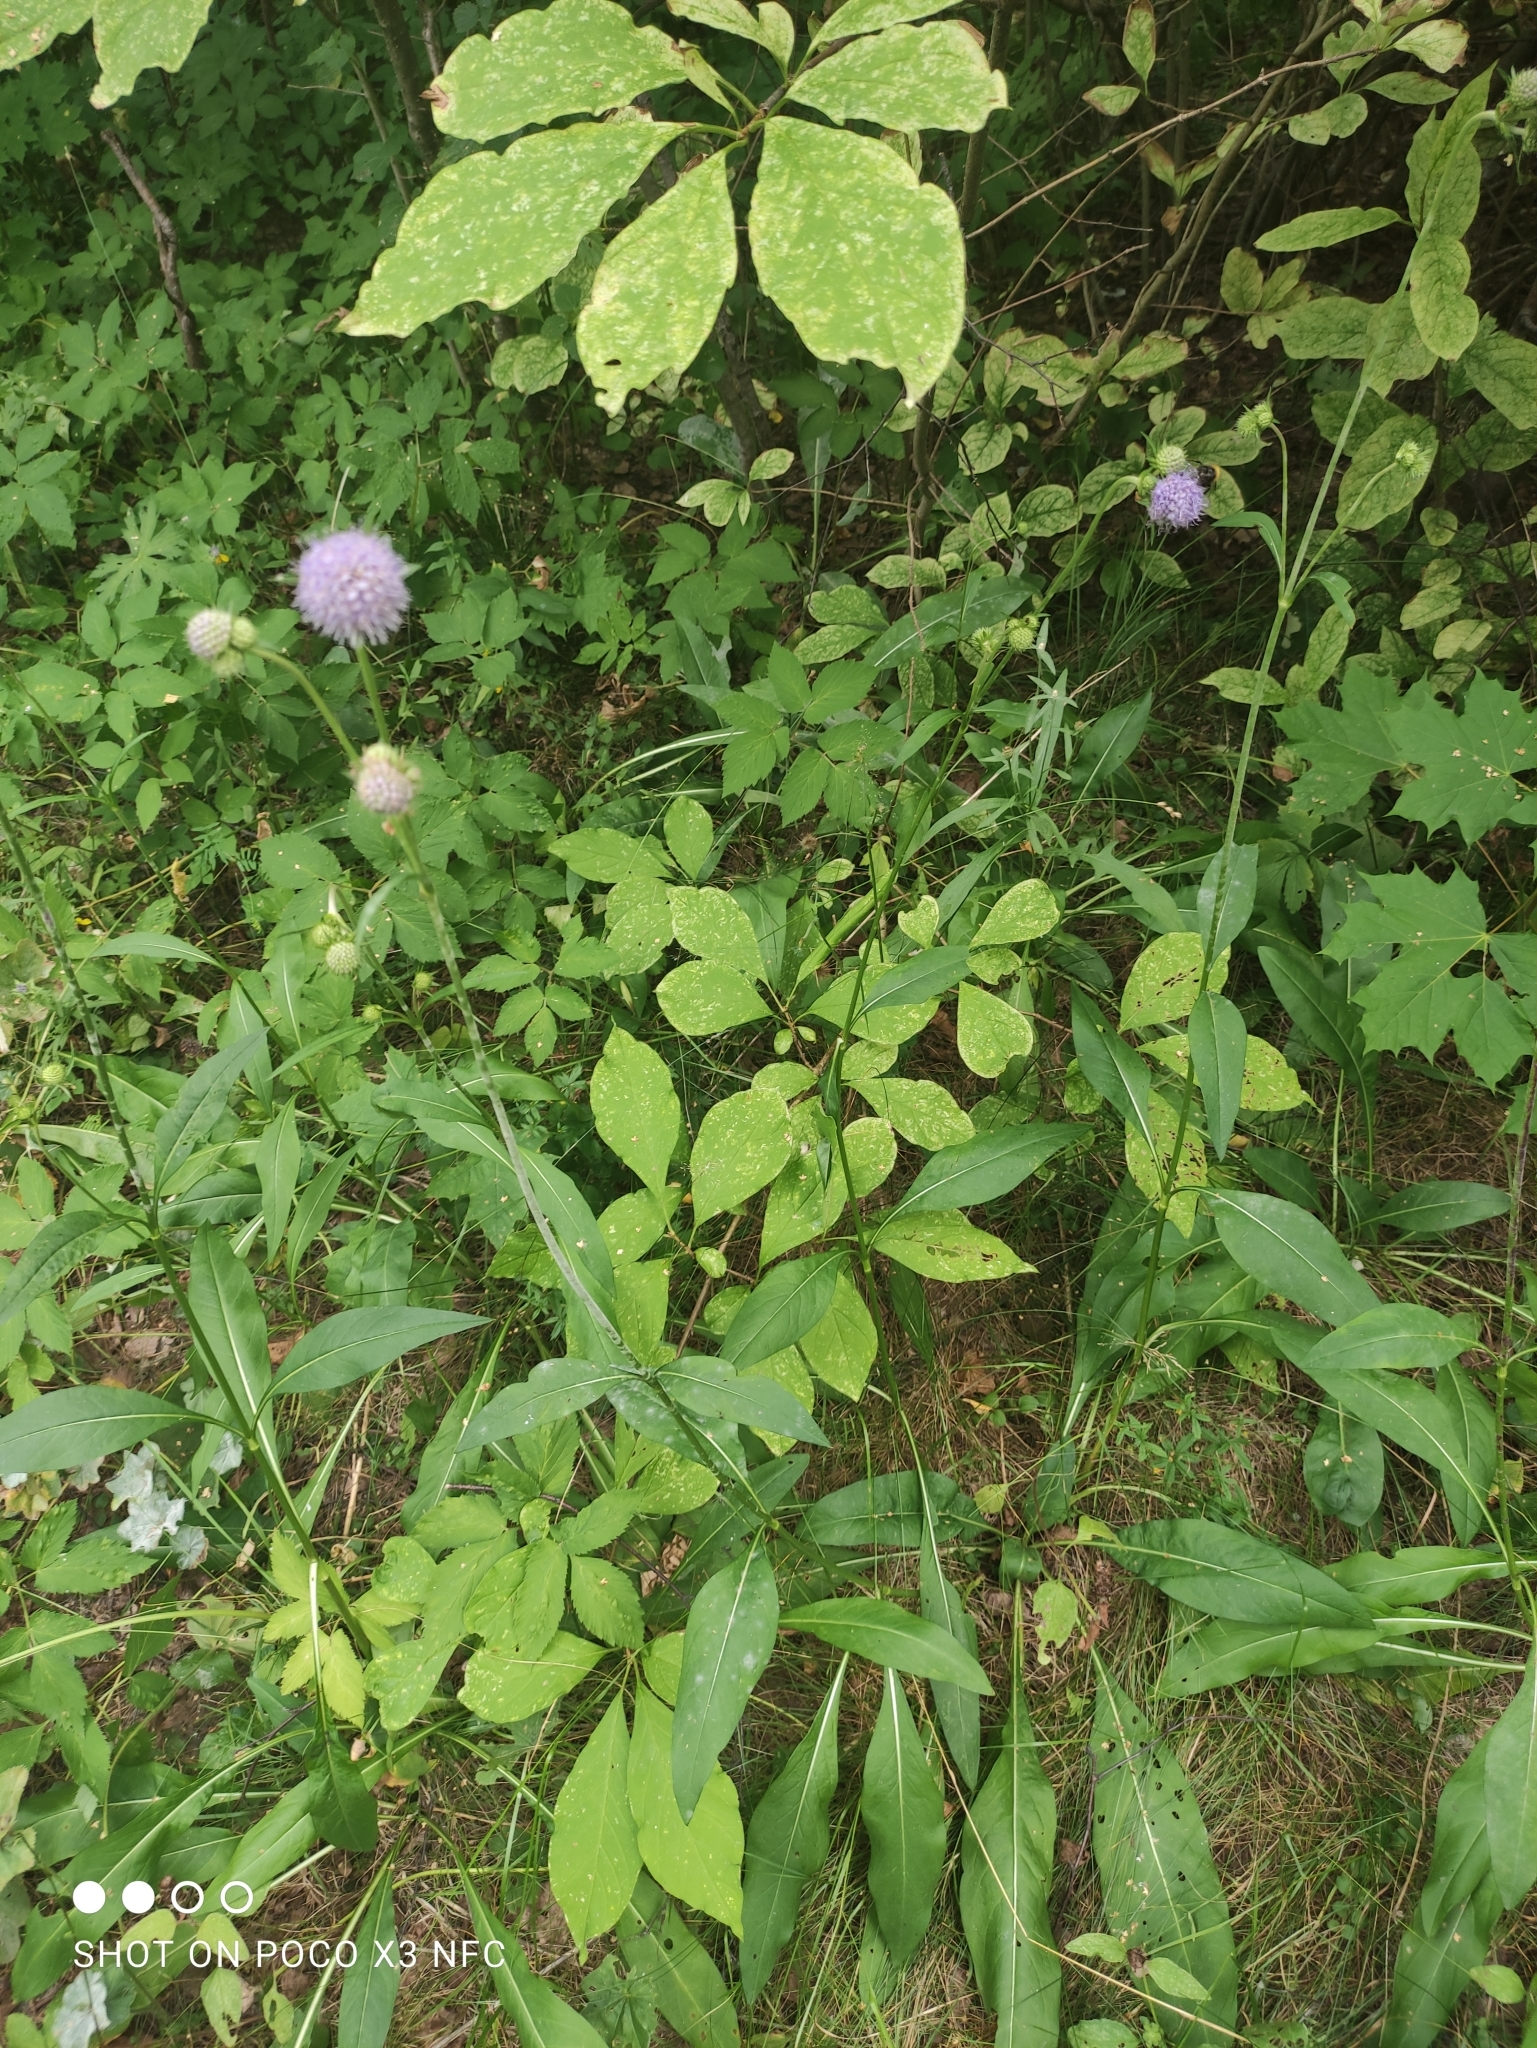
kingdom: Plantae
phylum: Tracheophyta
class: Magnoliopsida
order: Dipsacales
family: Caprifoliaceae
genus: Succisa
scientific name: Succisa pratensis
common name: Devil's-bit
